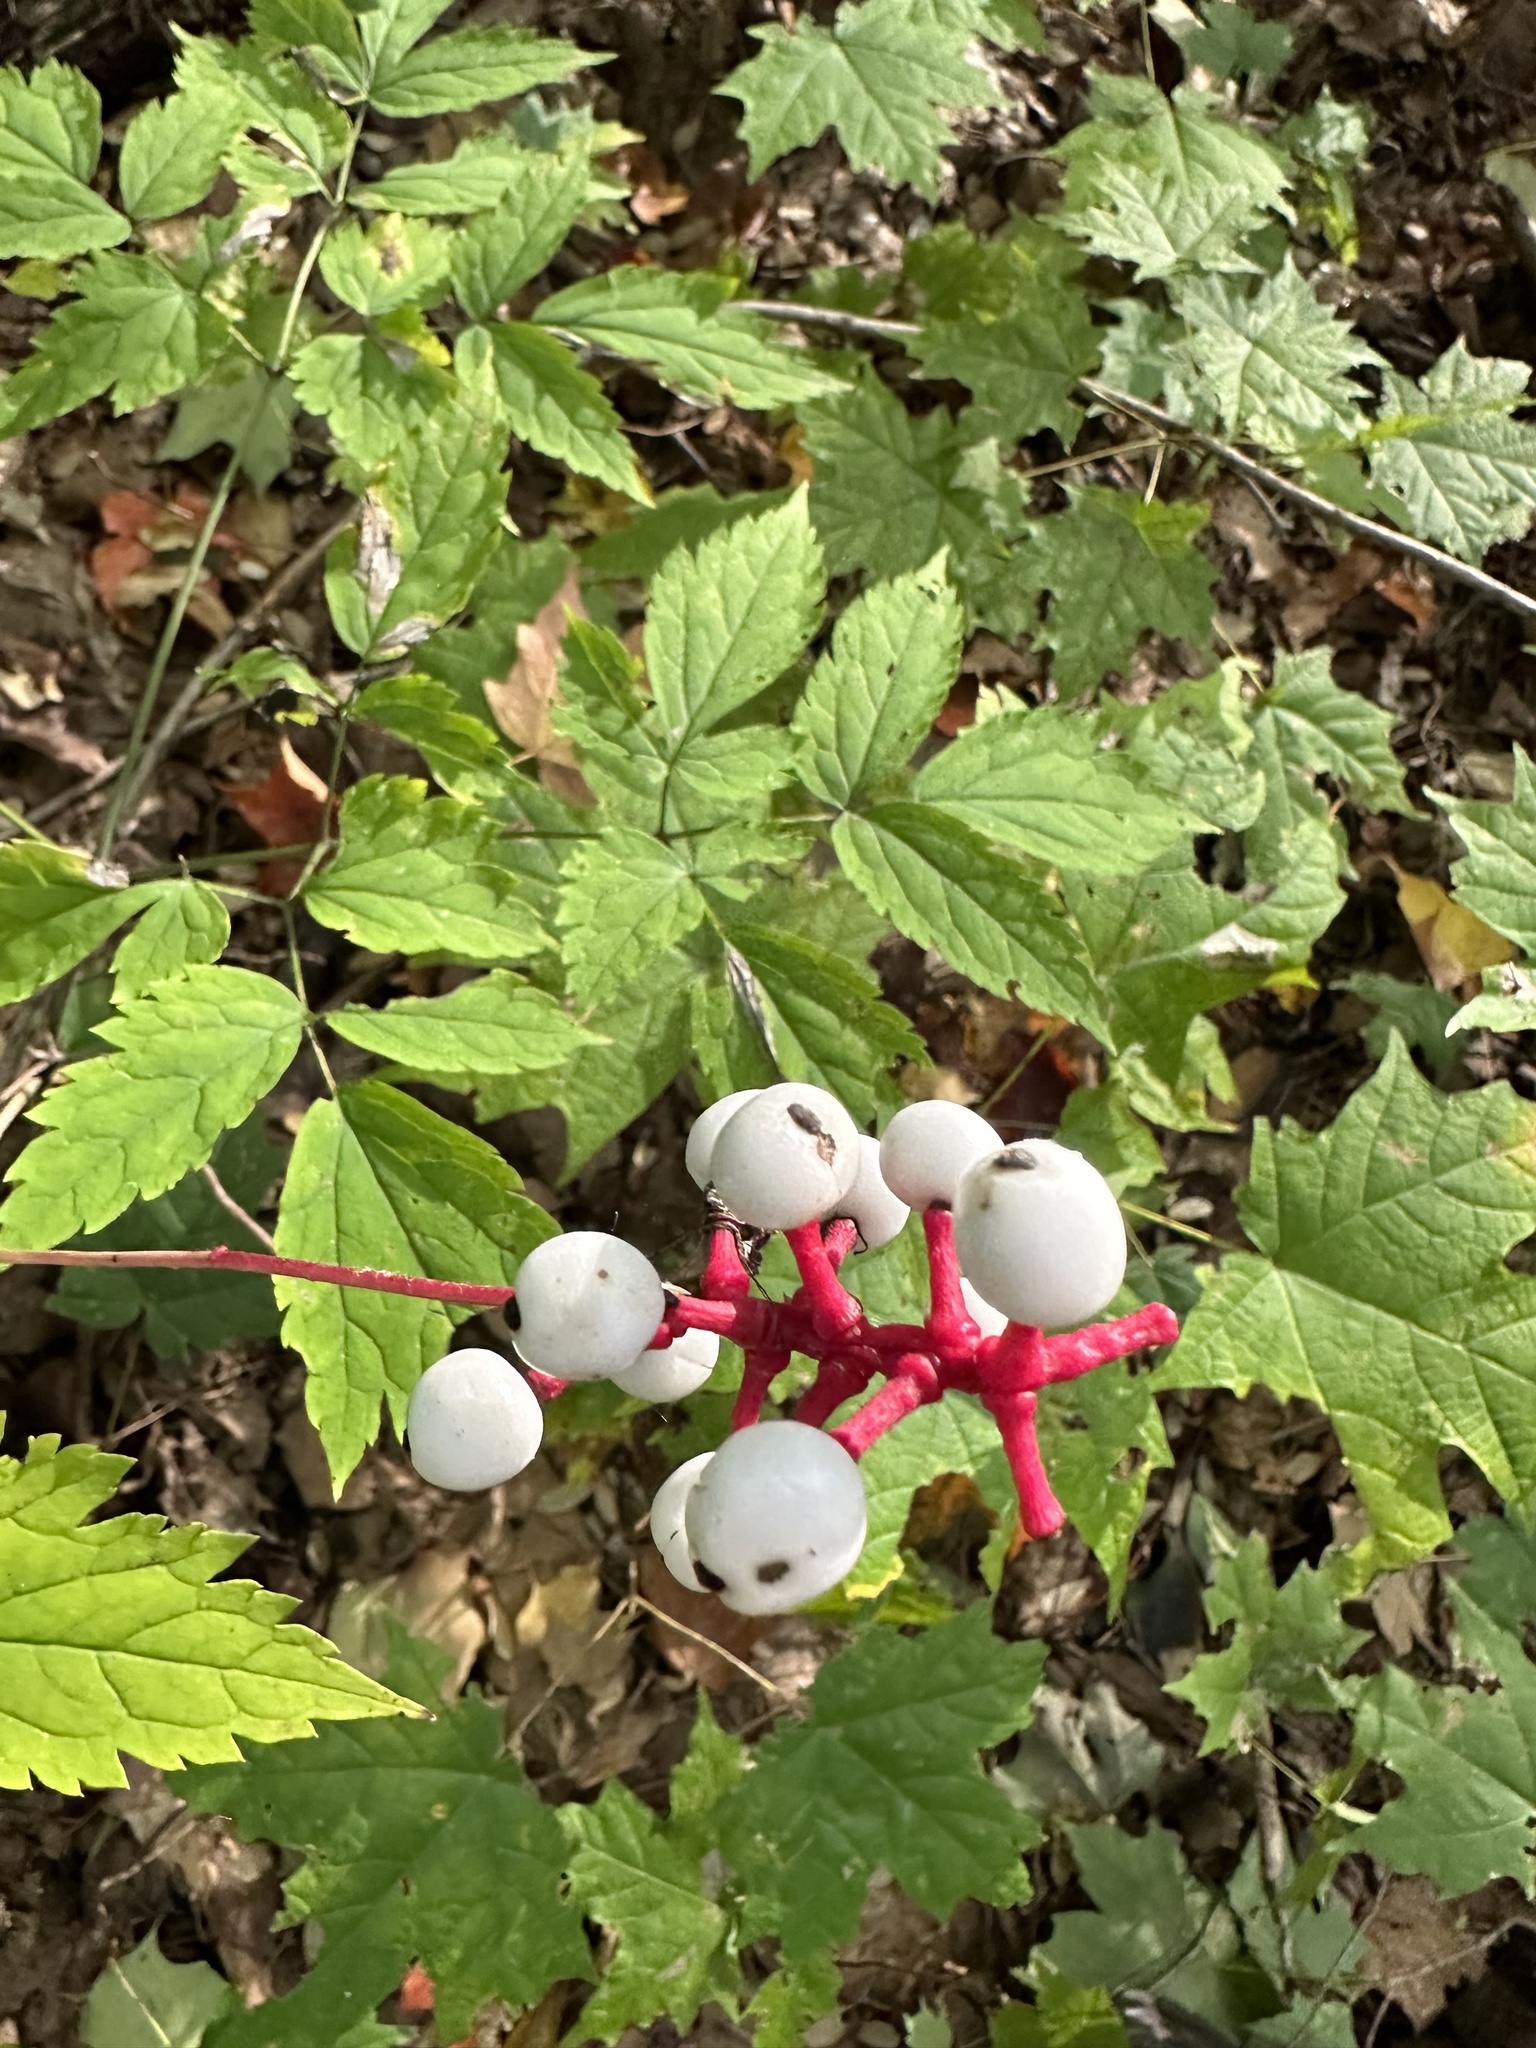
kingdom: Plantae
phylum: Tracheophyta
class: Magnoliopsida
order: Ranunculales
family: Ranunculaceae
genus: Actaea
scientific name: Actaea pachypoda
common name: Doll's-eyes
